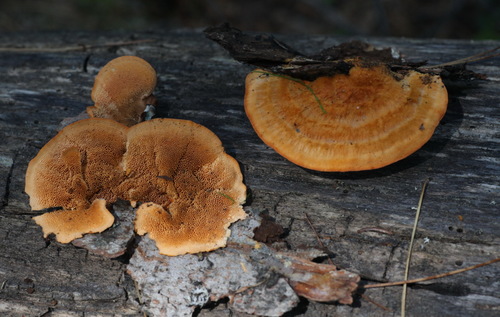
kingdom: Fungi
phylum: Basidiomycota
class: Agaricomycetes
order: Polyporales
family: Pycnoporellaceae
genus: Pycnoporellus
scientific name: Pycnoporellus fulgens
